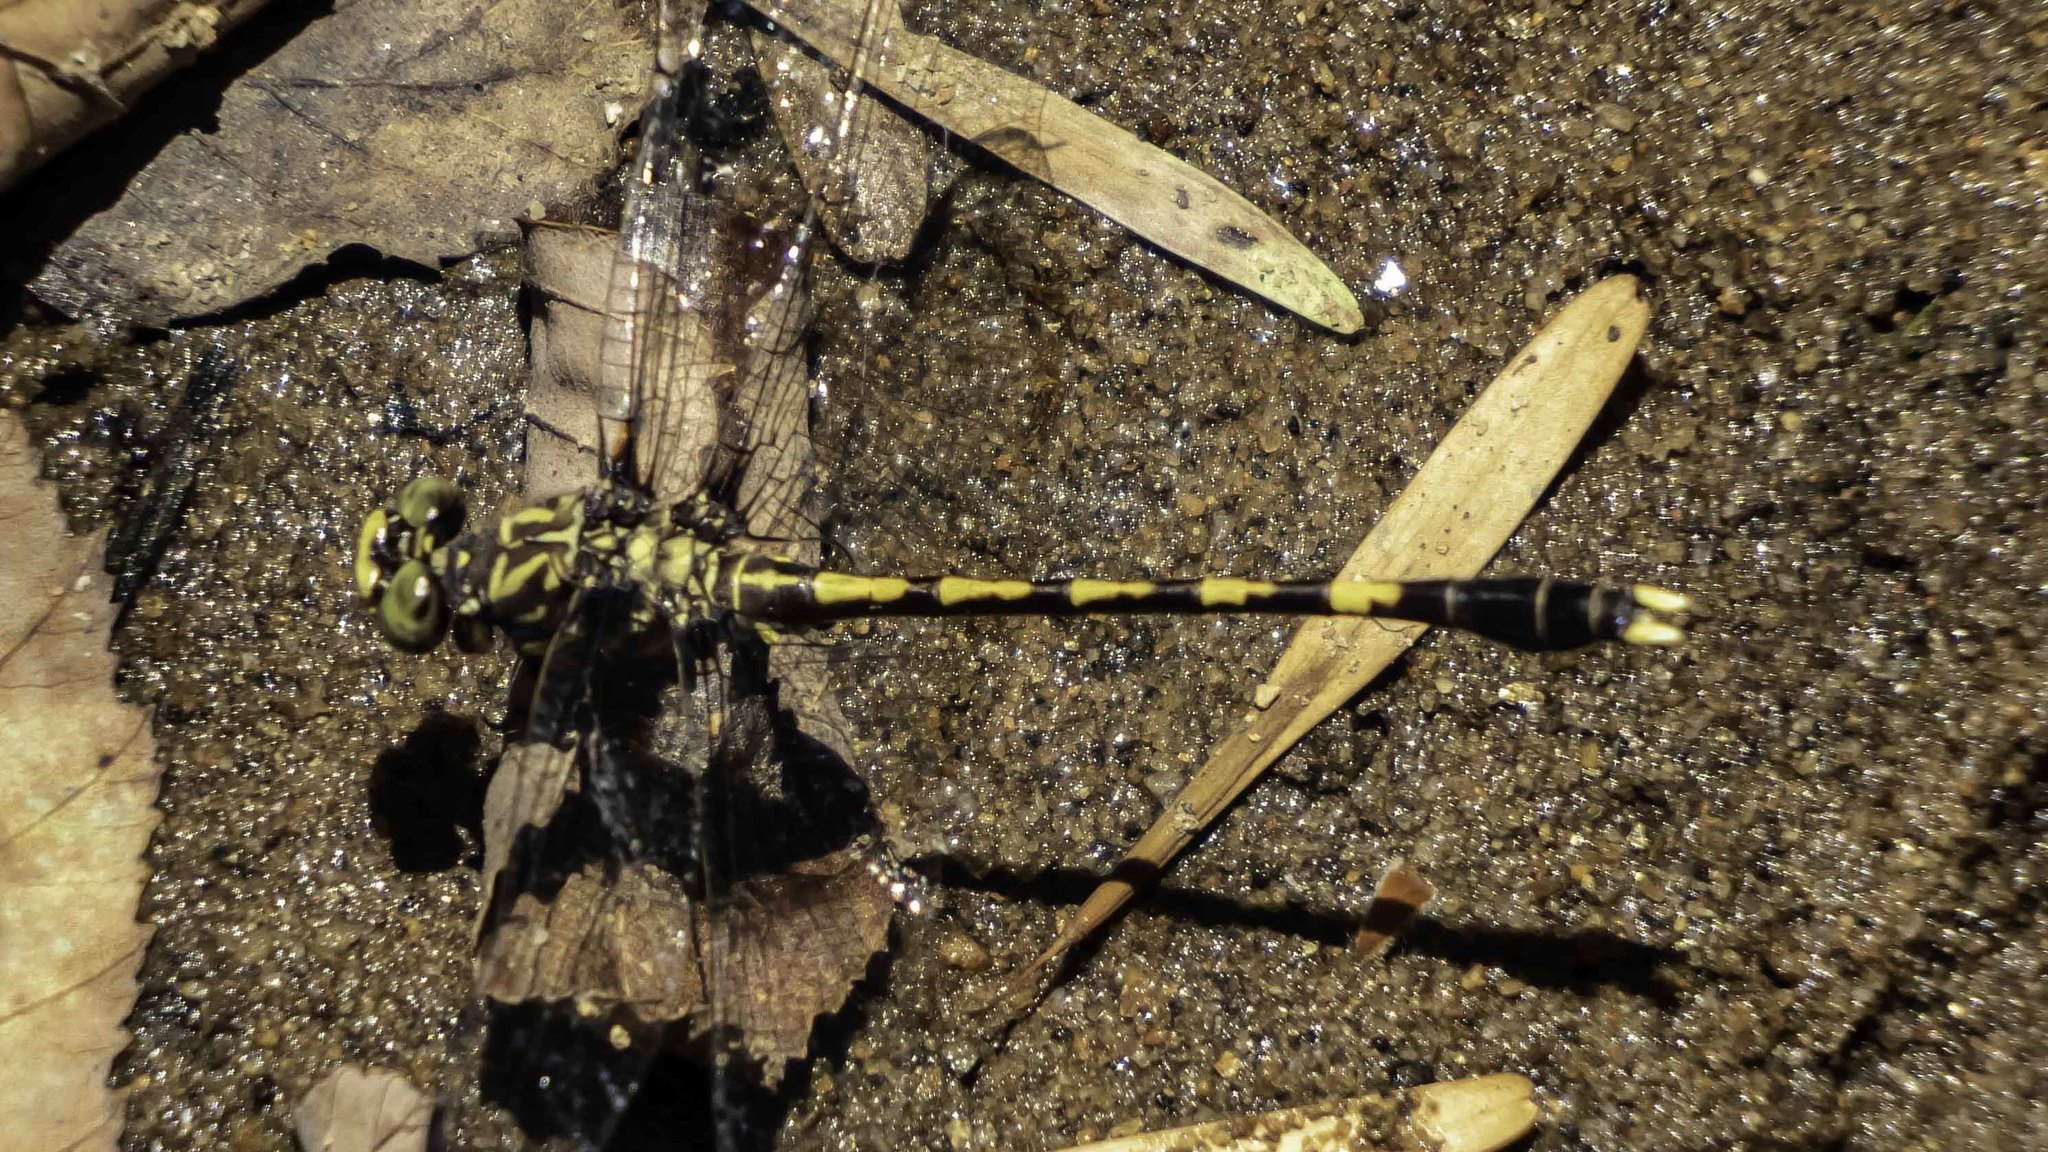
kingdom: Animalia
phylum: Arthropoda
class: Insecta
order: Odonata
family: Gomphidae
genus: Progomphus
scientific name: Progomphus obscurus
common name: Common sanddragon
